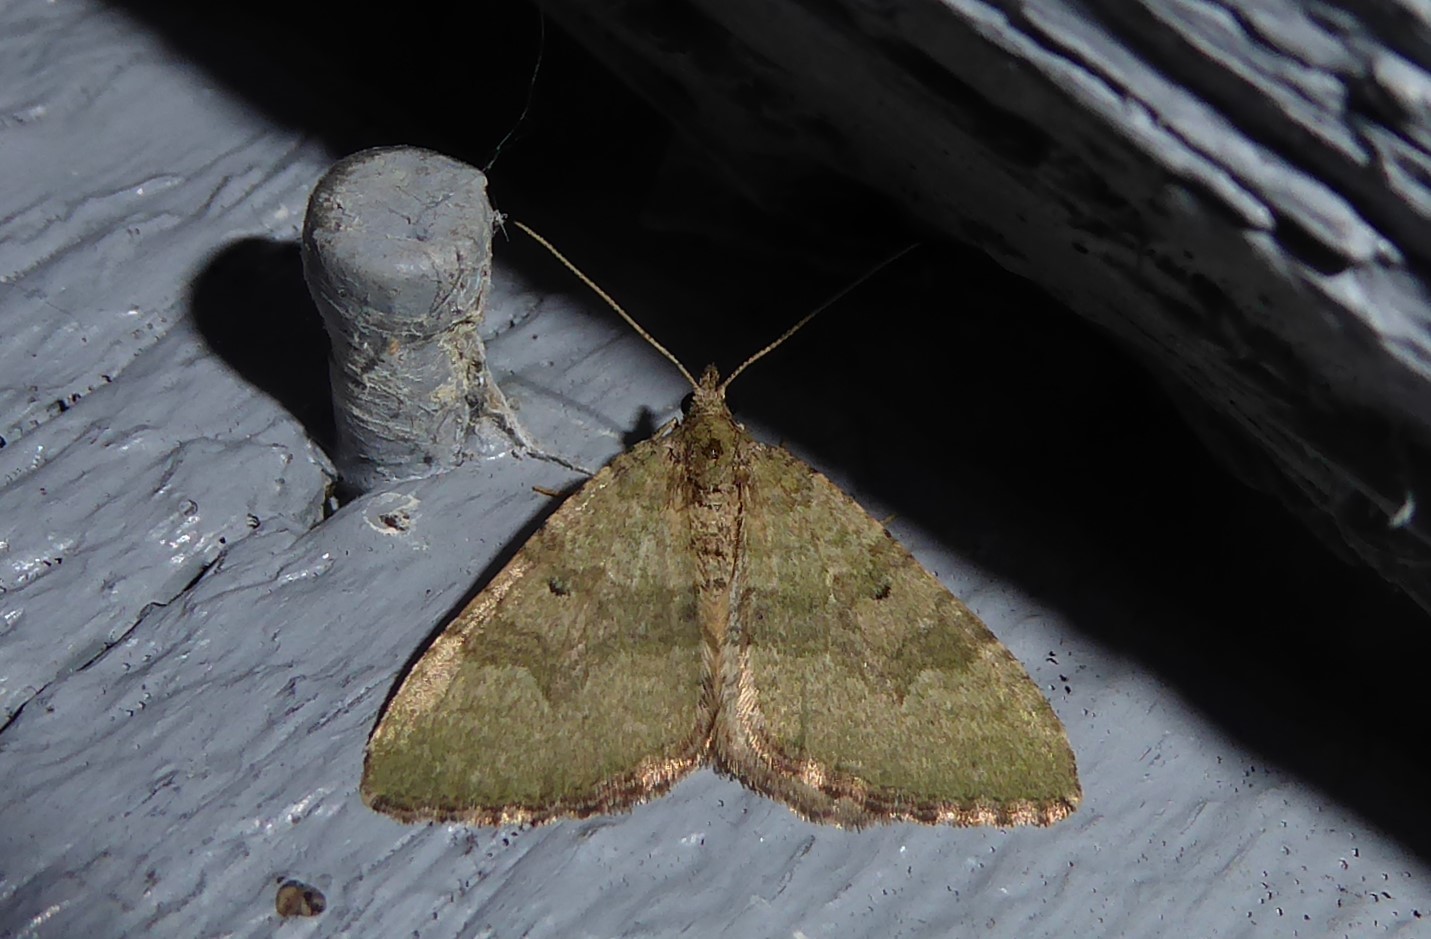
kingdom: Animalia
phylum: Arthropoda
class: Insecta
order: Lepidoptera
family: Geometridae
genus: Epyaxa
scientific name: Epyaxa rosearia
